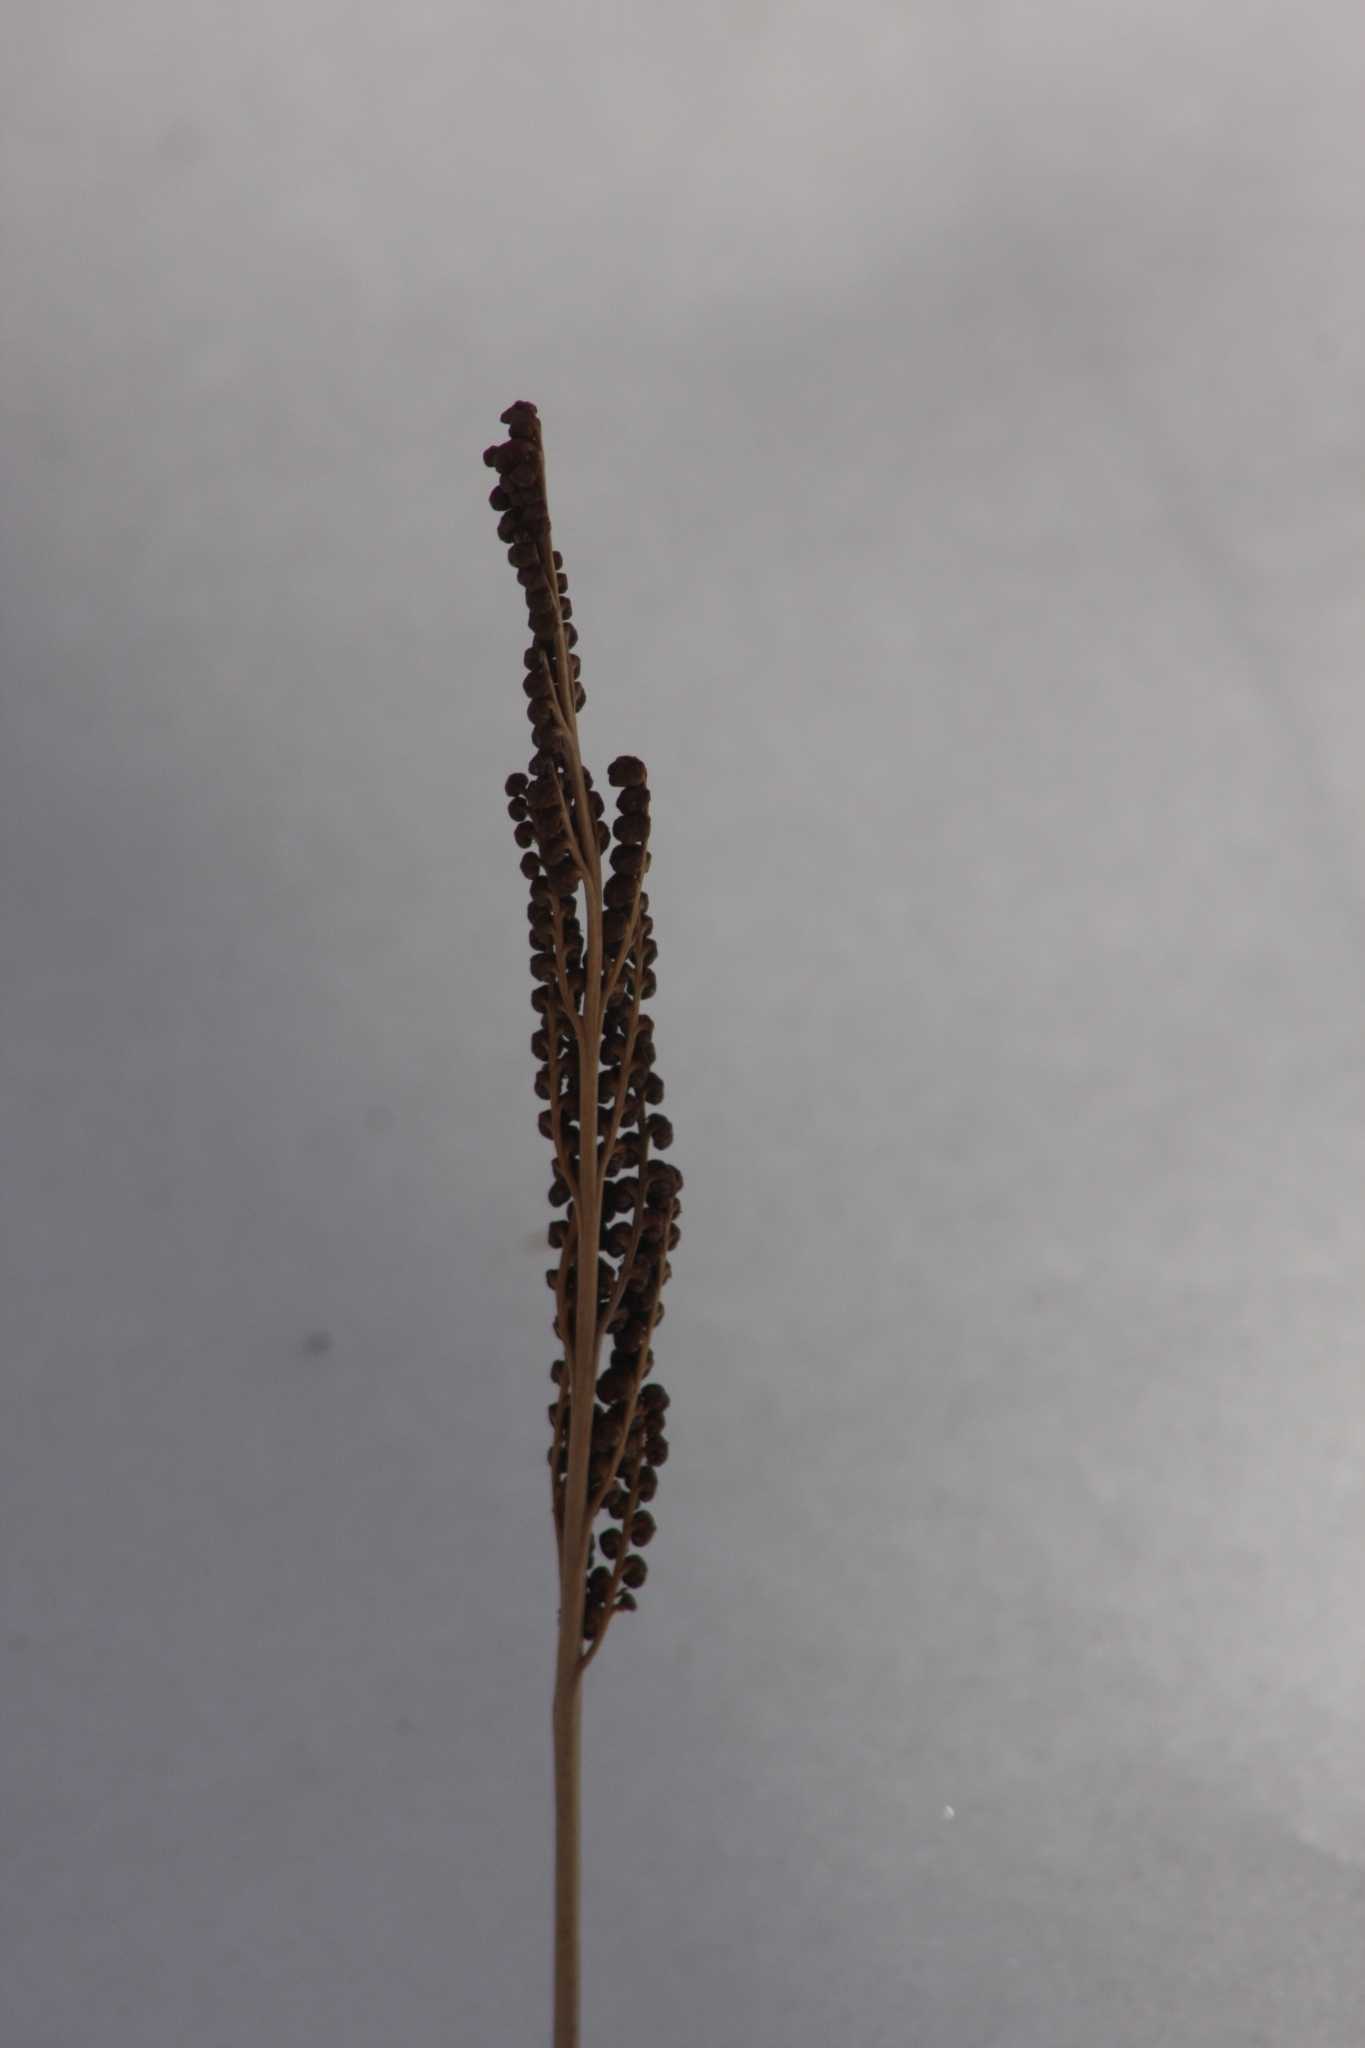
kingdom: Plantae
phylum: Tracheophyta
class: Polypodiopsida
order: Polypodiales
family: Onocleaceae
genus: Onoclea
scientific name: Onoclea sensibilis
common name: Sensitive fern
